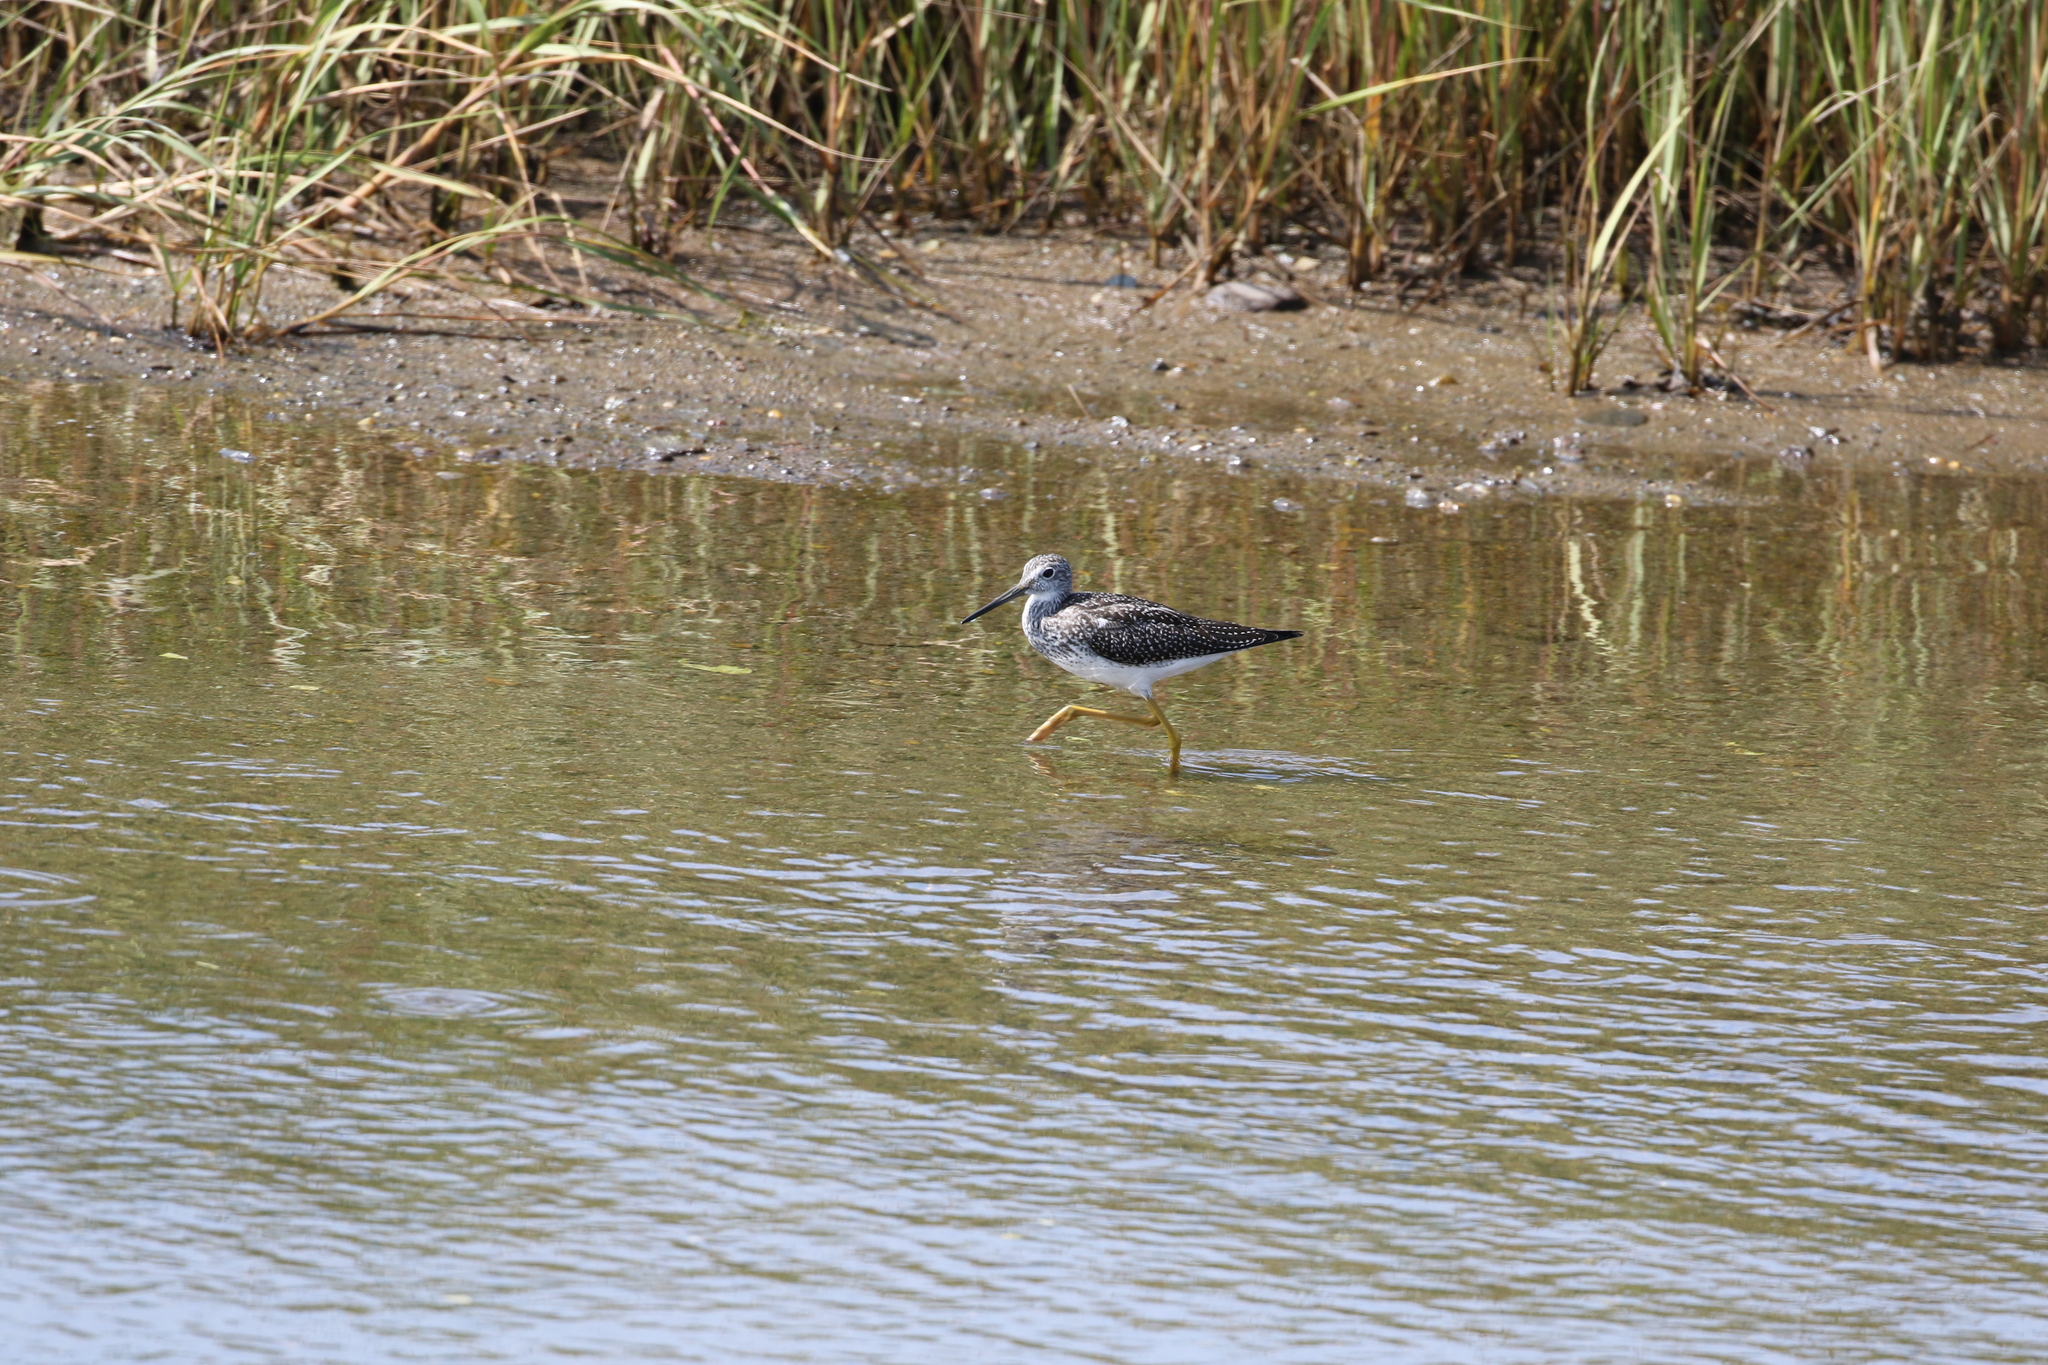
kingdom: Animalia
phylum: Chordata
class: Aves
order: Charadriiformes
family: Scolopacidae
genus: Tringa
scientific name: Tringa melanoleuca
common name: Greater yellowlegs
